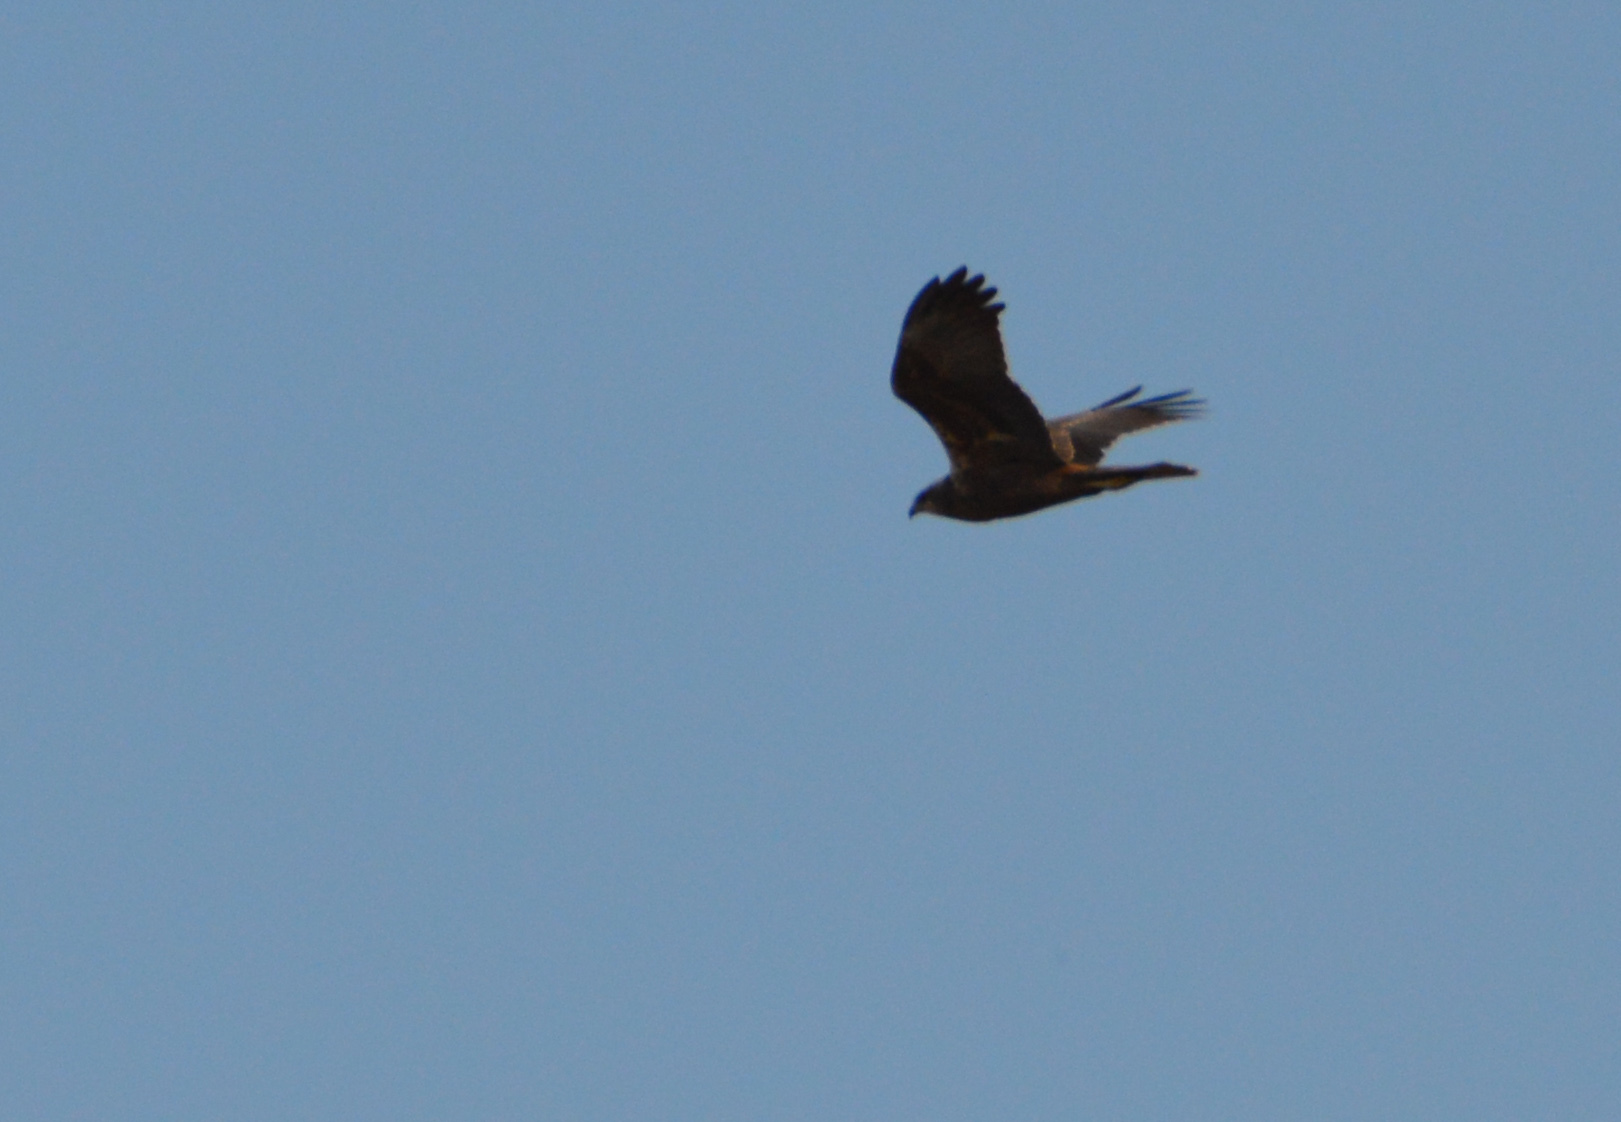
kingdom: Animalia
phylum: Chordata
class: Aves
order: Accipitriformes
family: Accipitridae
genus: Circus
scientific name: Circus aeruginosus
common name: Western marsh harrier
